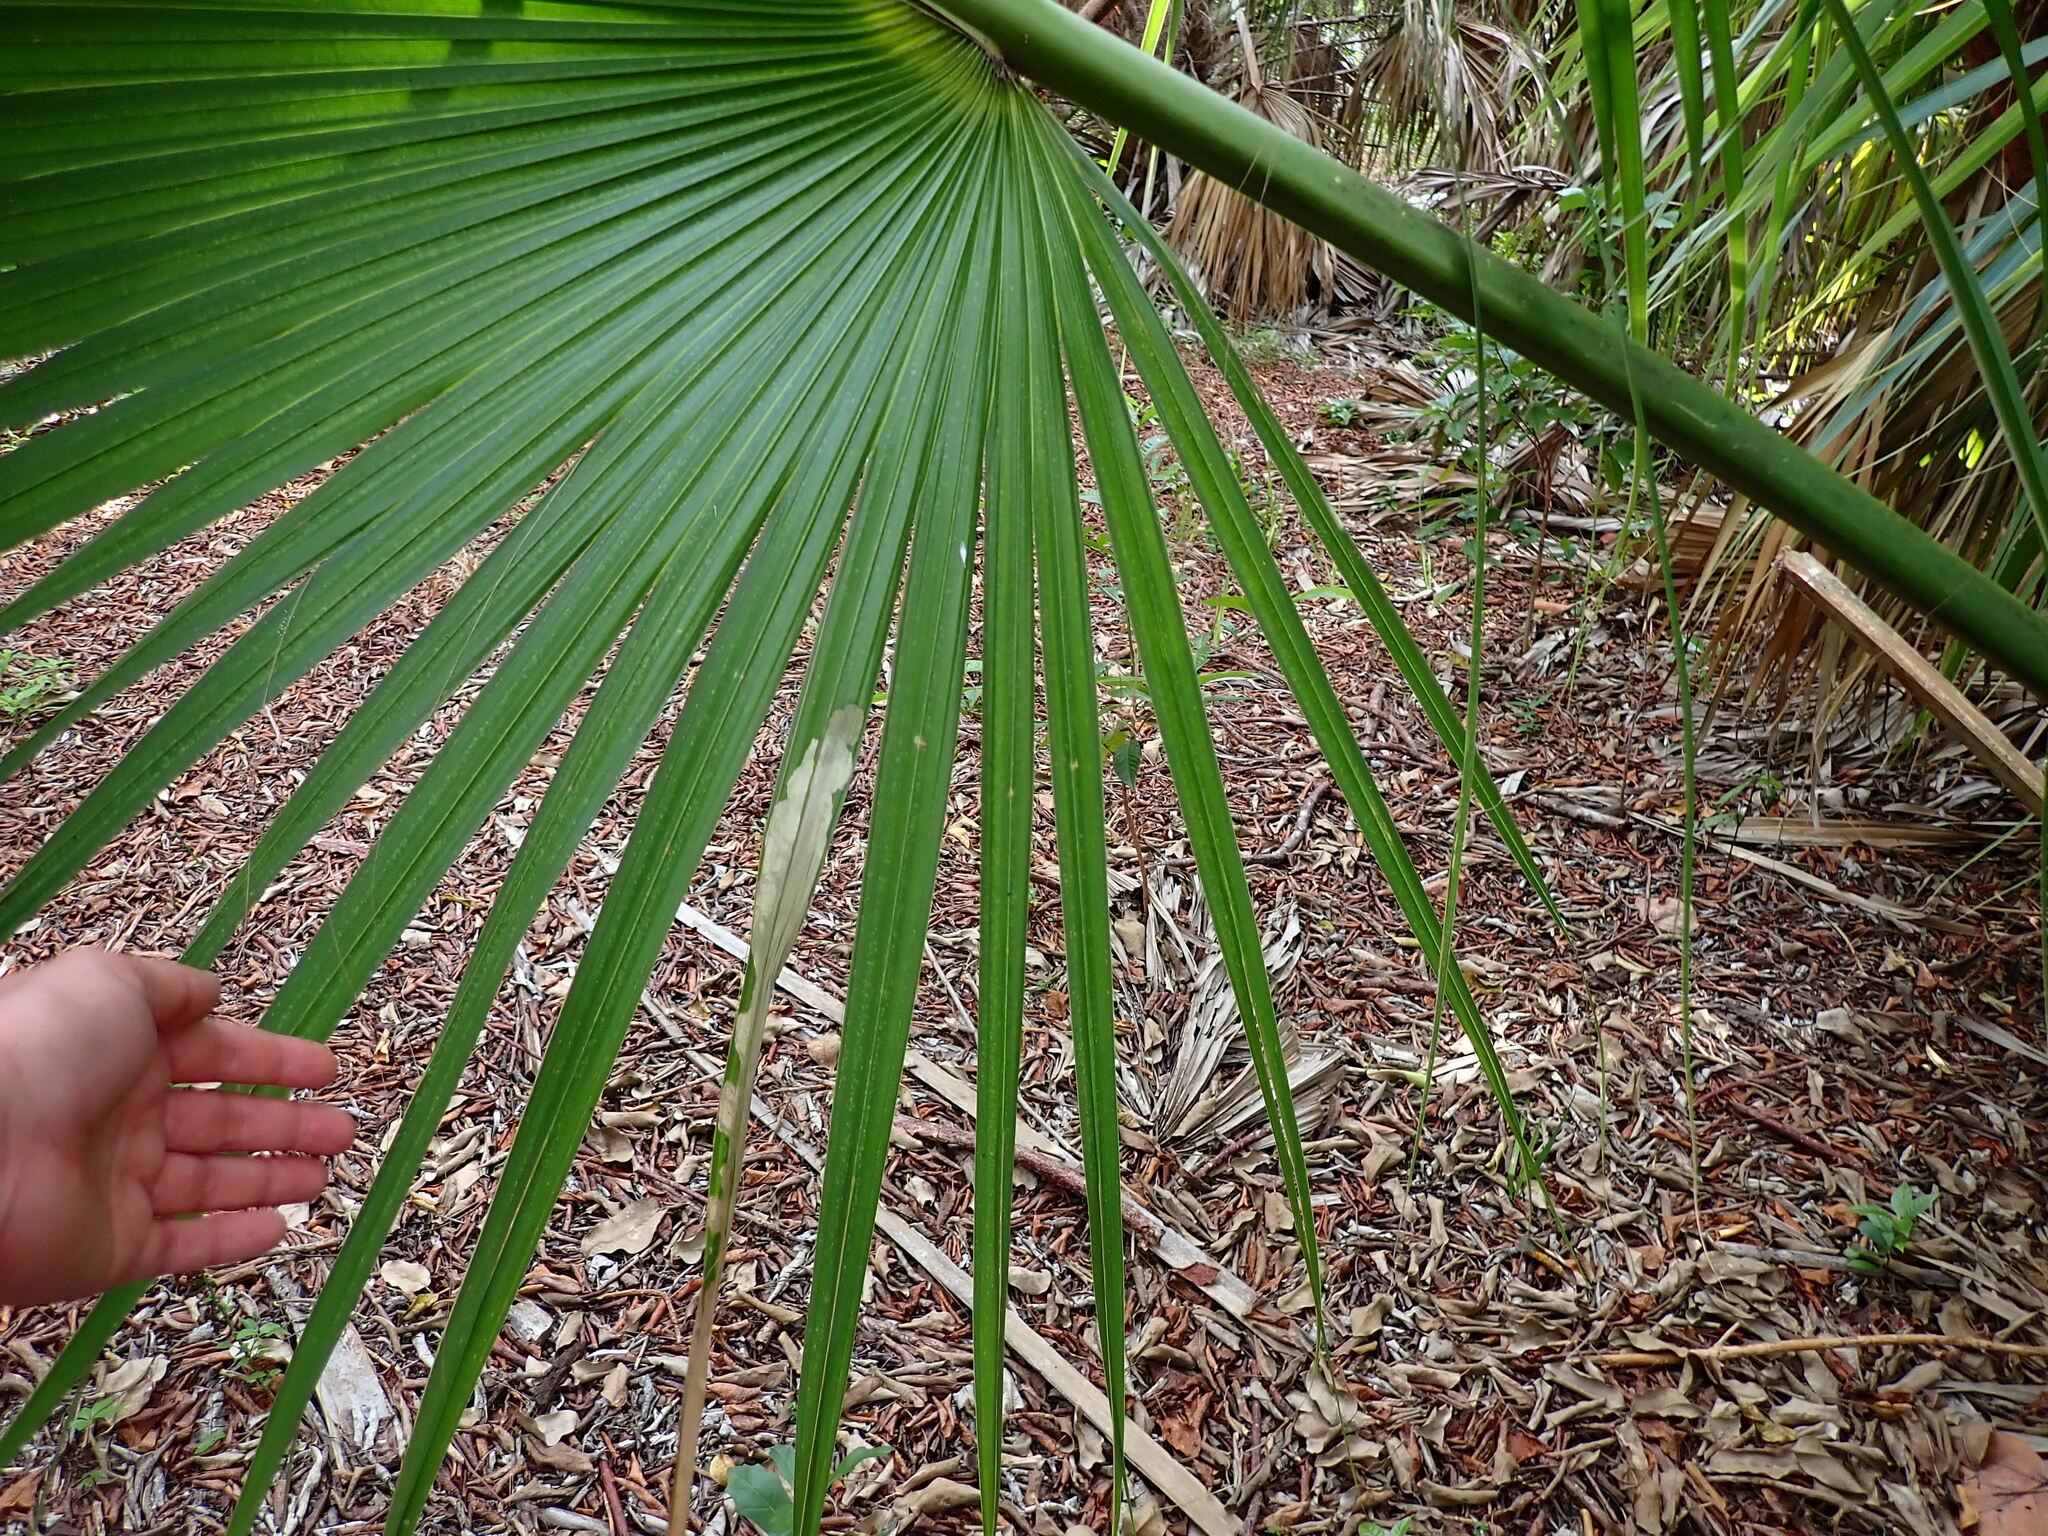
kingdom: Plantae
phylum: Tracheophyta
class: Liliopsida
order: Arecales
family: Arecaceae
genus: Sabal
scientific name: Sabal palmetto
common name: Blue palmetto
